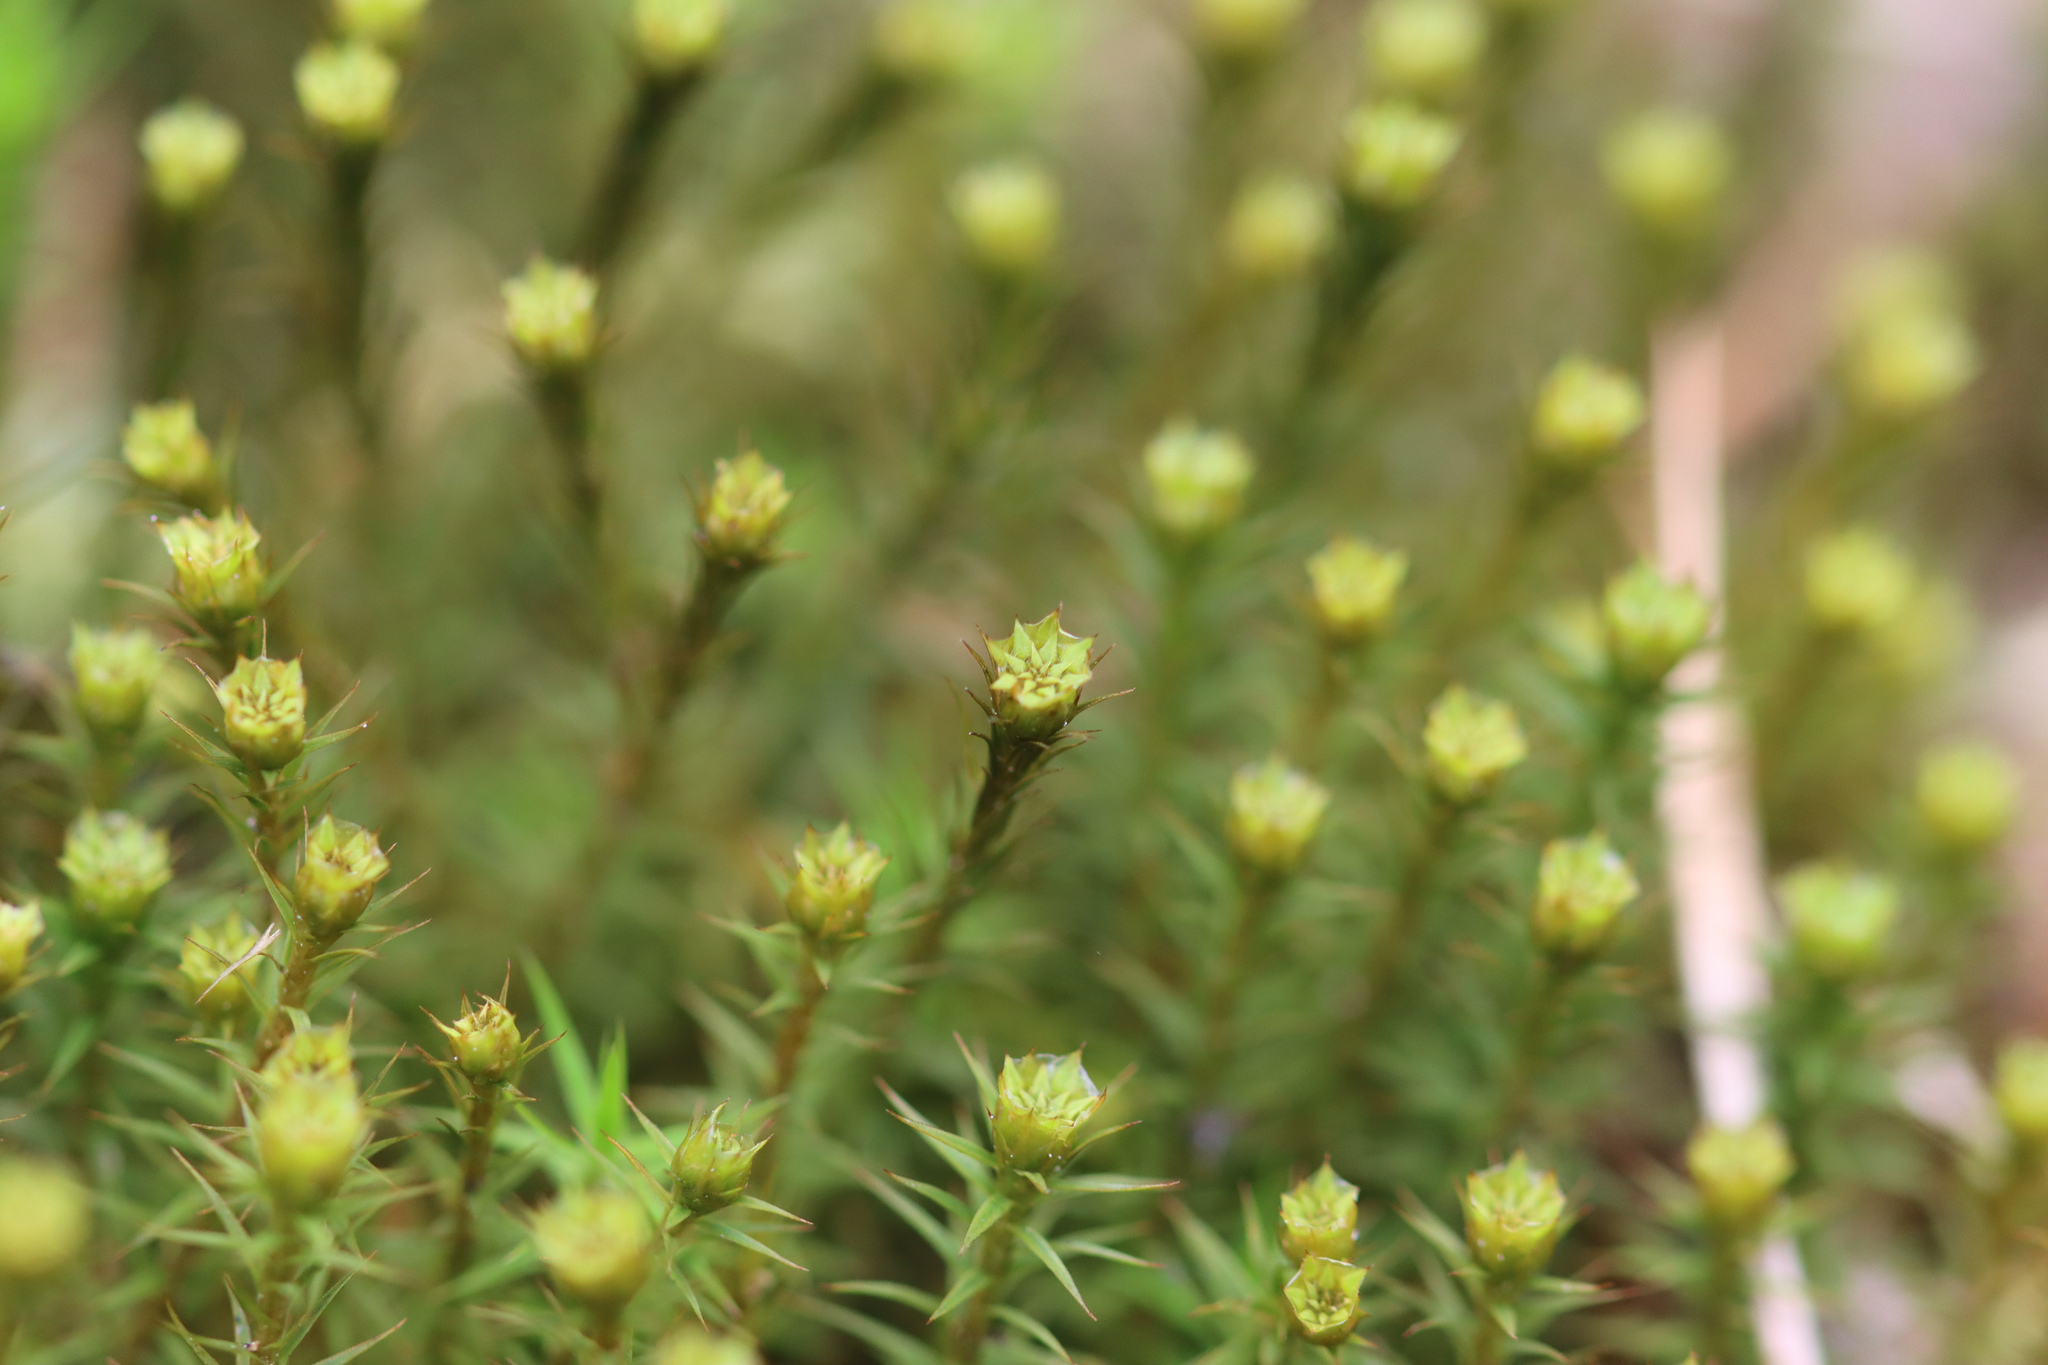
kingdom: Plantae
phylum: Bryophyta
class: Polytrichopsida
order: Polytrichales
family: Polytrichaceae
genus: Polytrichum
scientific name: Polytrichum formosum
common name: Bank haircap moss
